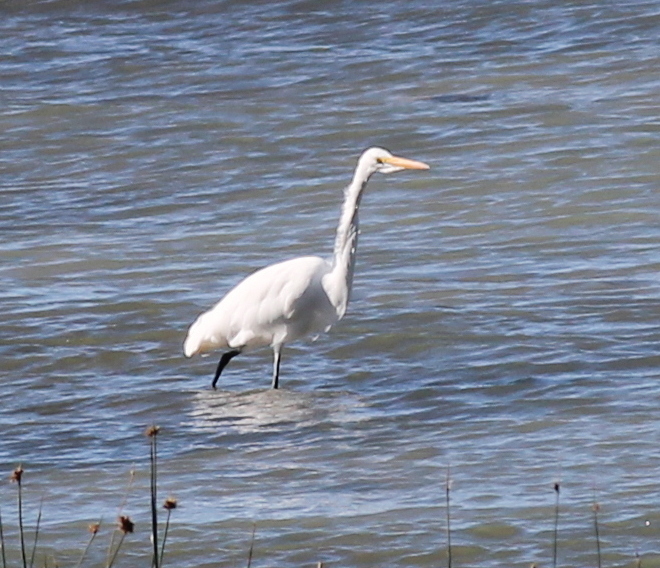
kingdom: Animalia
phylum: Chordata
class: Aves
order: Pelecaniformes
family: Ardeidae
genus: Ardea
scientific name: Ardea alba
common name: Great egret
